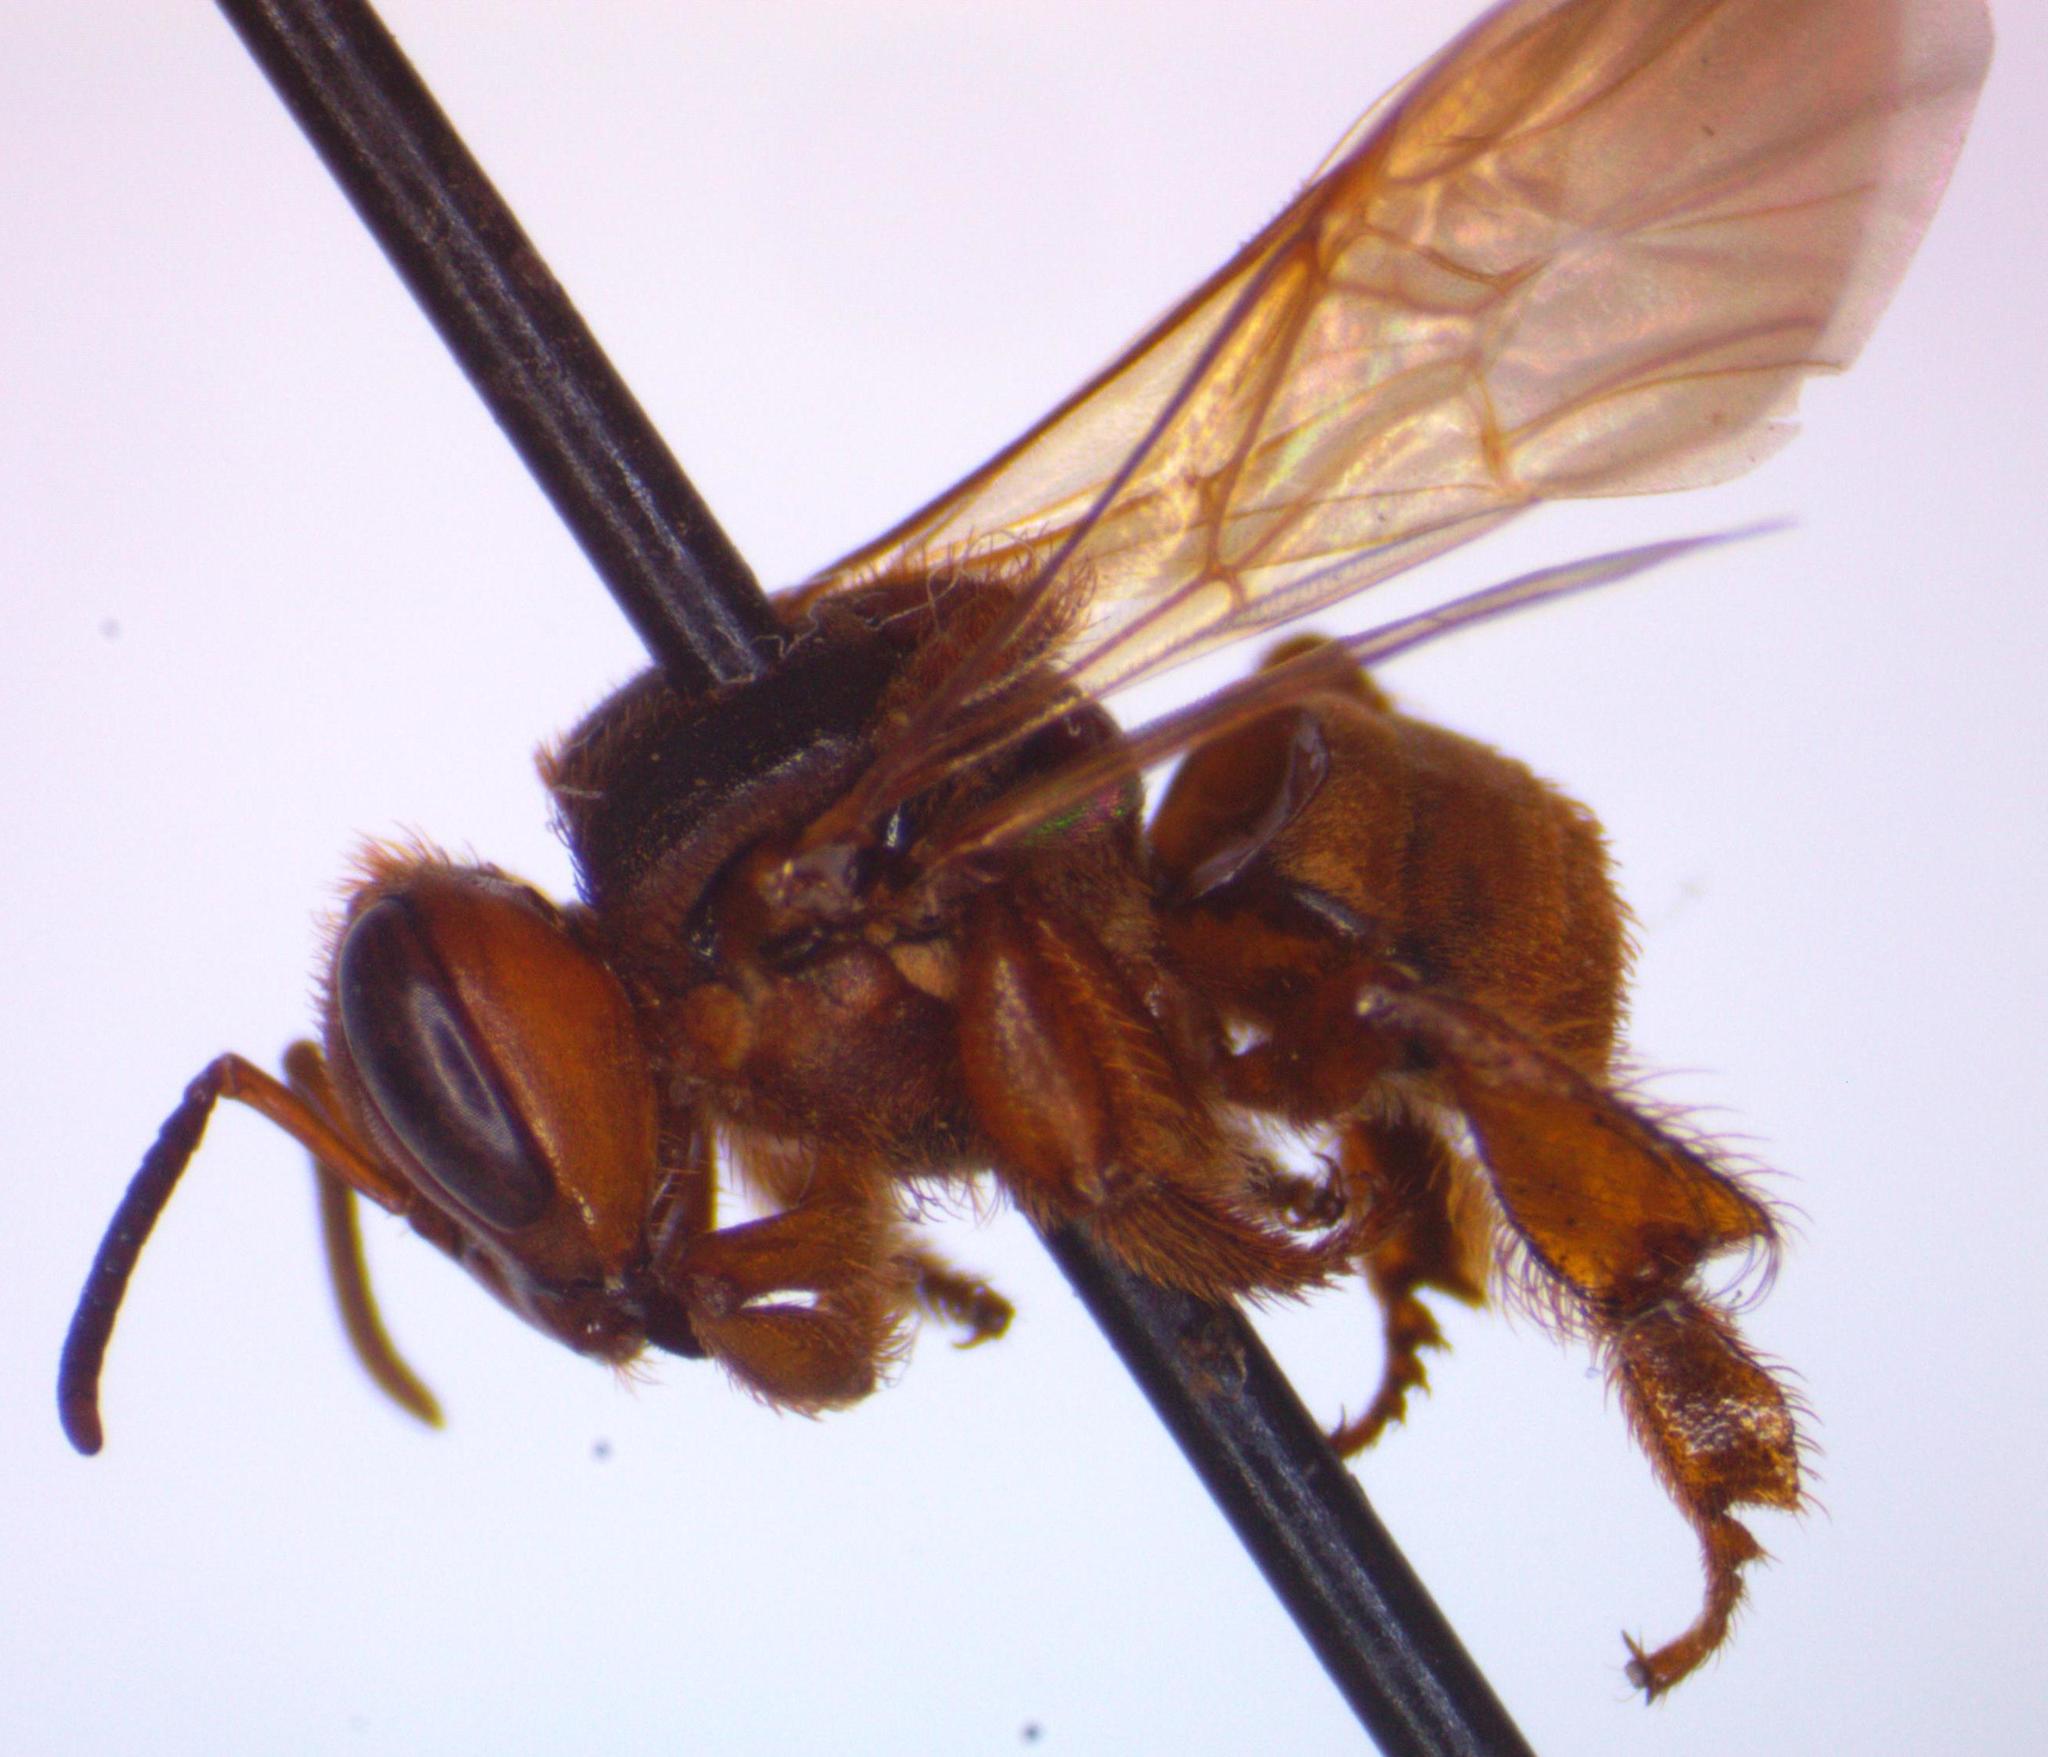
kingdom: Animalia
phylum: Arthropoda
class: Insecta
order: Hymenoptera
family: Apidae
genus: Scaptotrigona
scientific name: Scaptotrigona pectoralis
